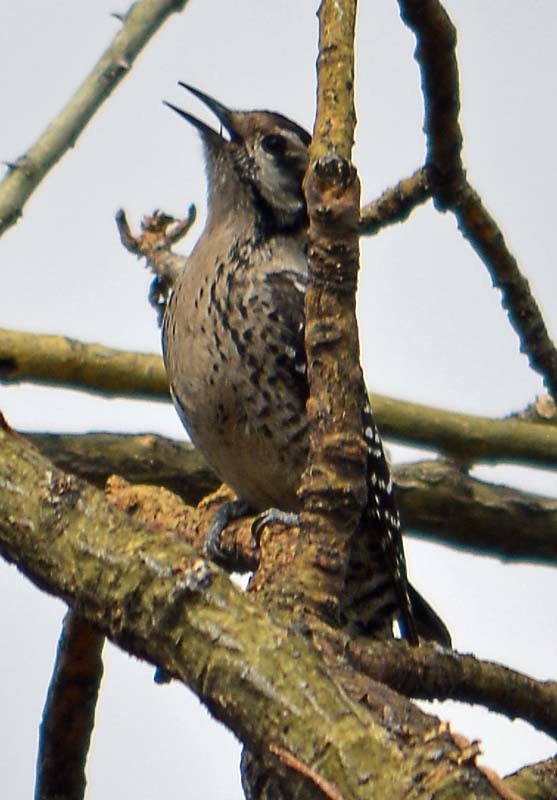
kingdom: Animalia
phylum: Chordata
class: Aves
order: Piciformes
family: Picidae
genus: Dryobates
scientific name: Dryobates scalaris
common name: Ladder-backed woodpecker
